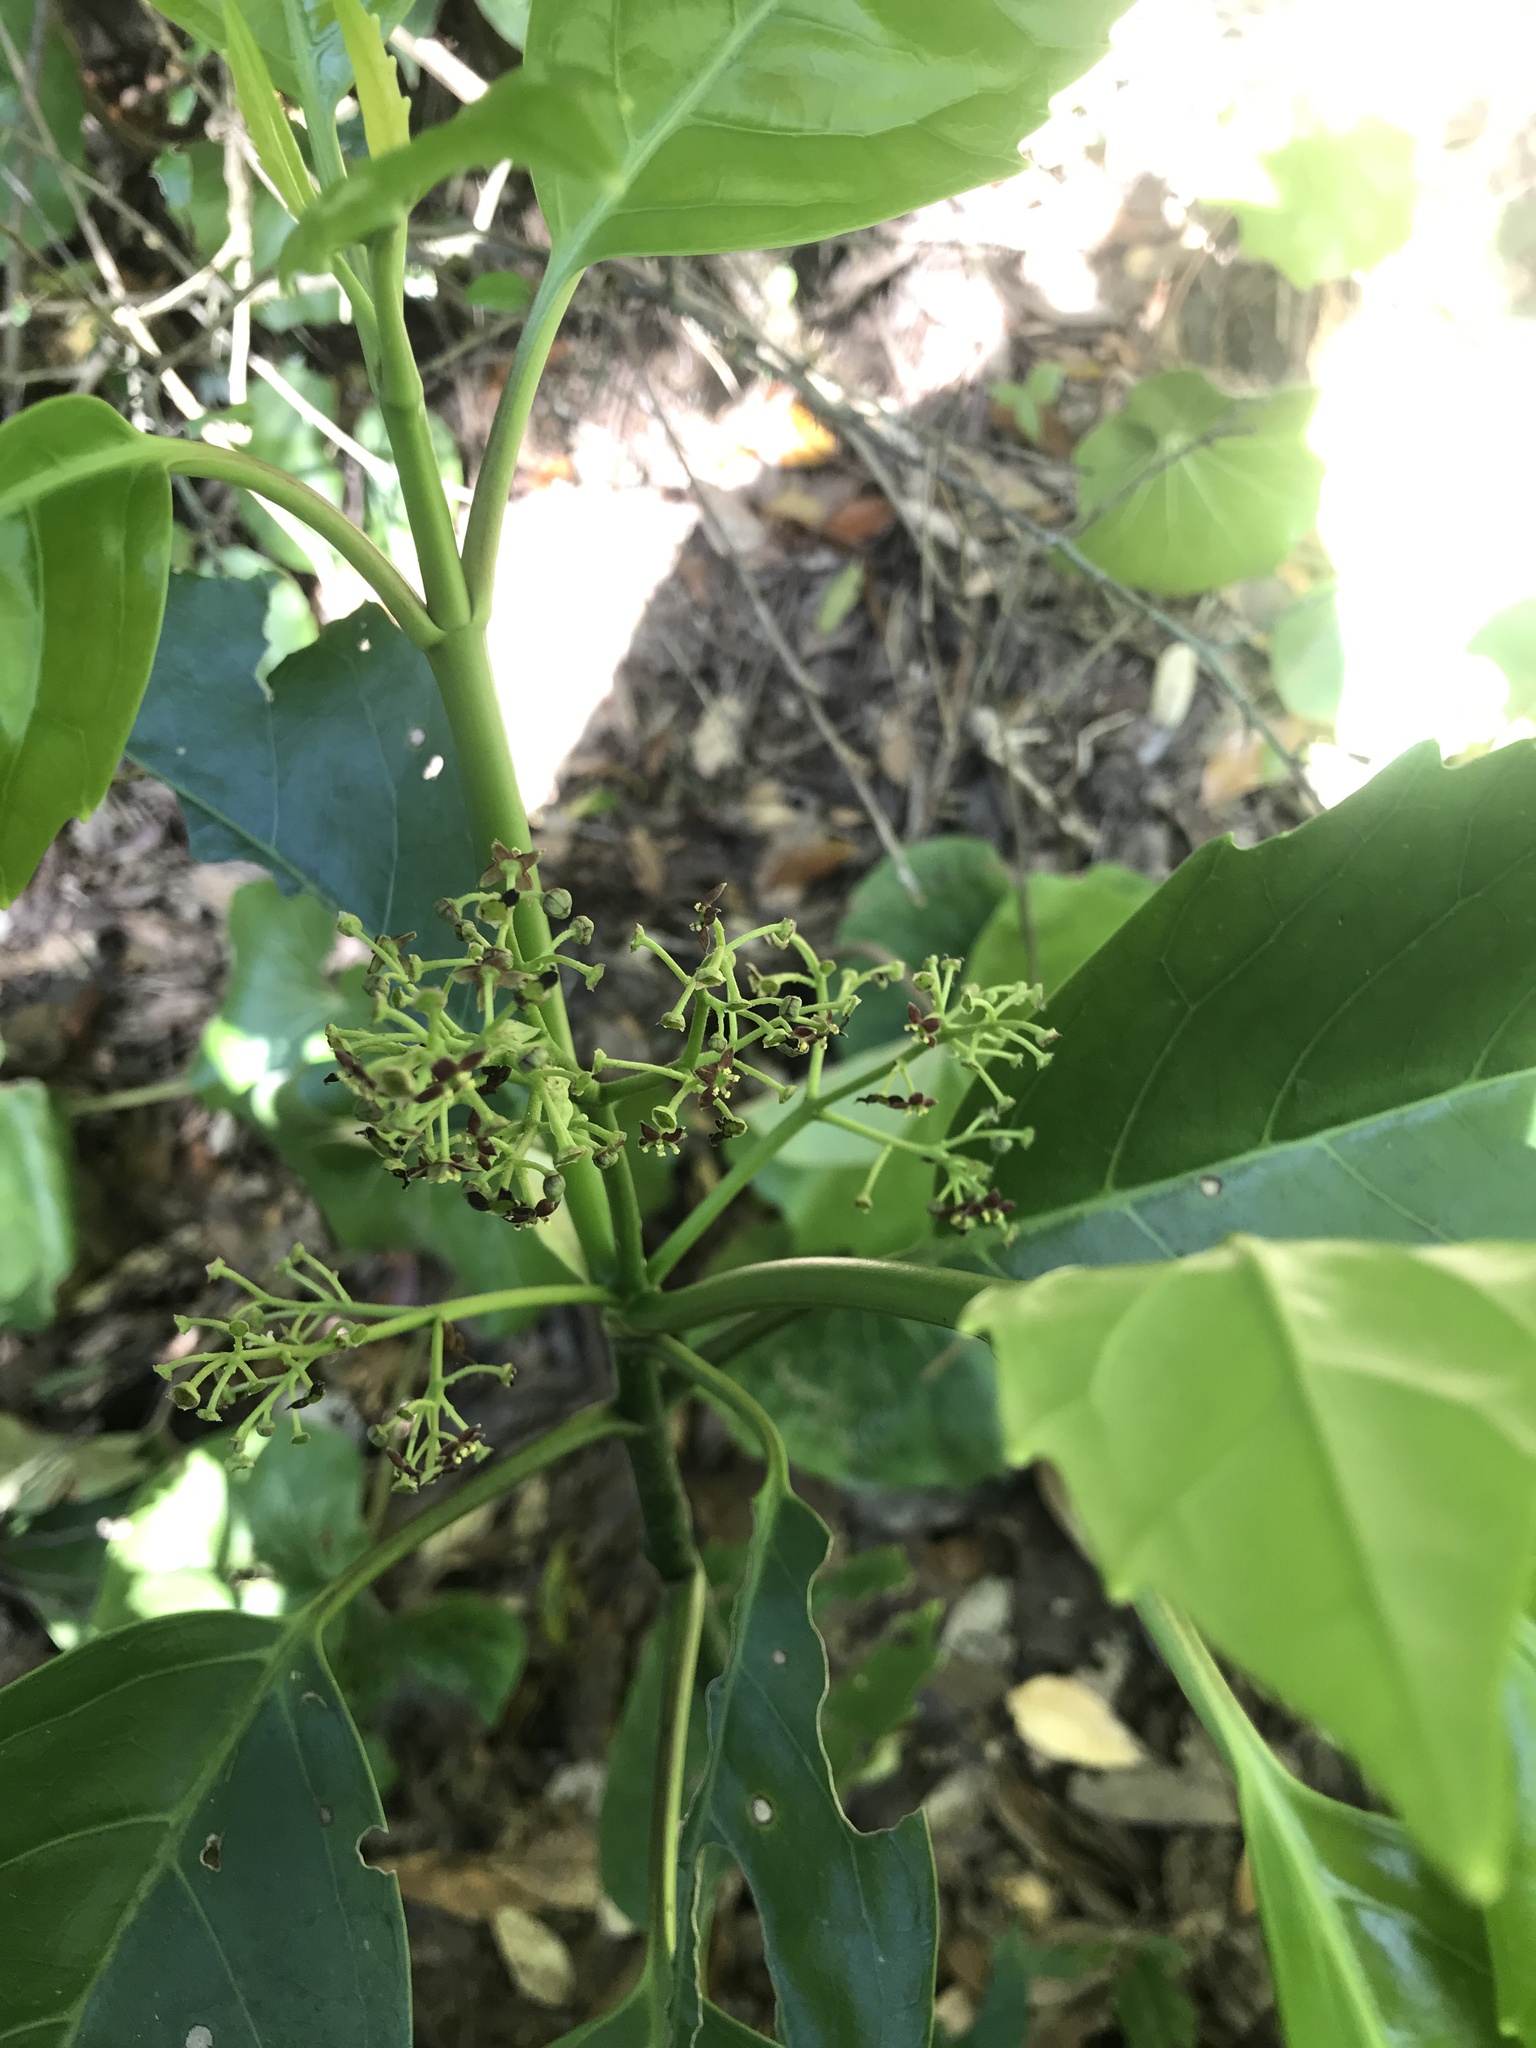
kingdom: Plantae
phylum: Tracheophyta
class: Magnoliopsida
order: Garryales
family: Garryaceae
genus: Aucuba
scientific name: Aucuba japonica
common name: Spotted-laurel
